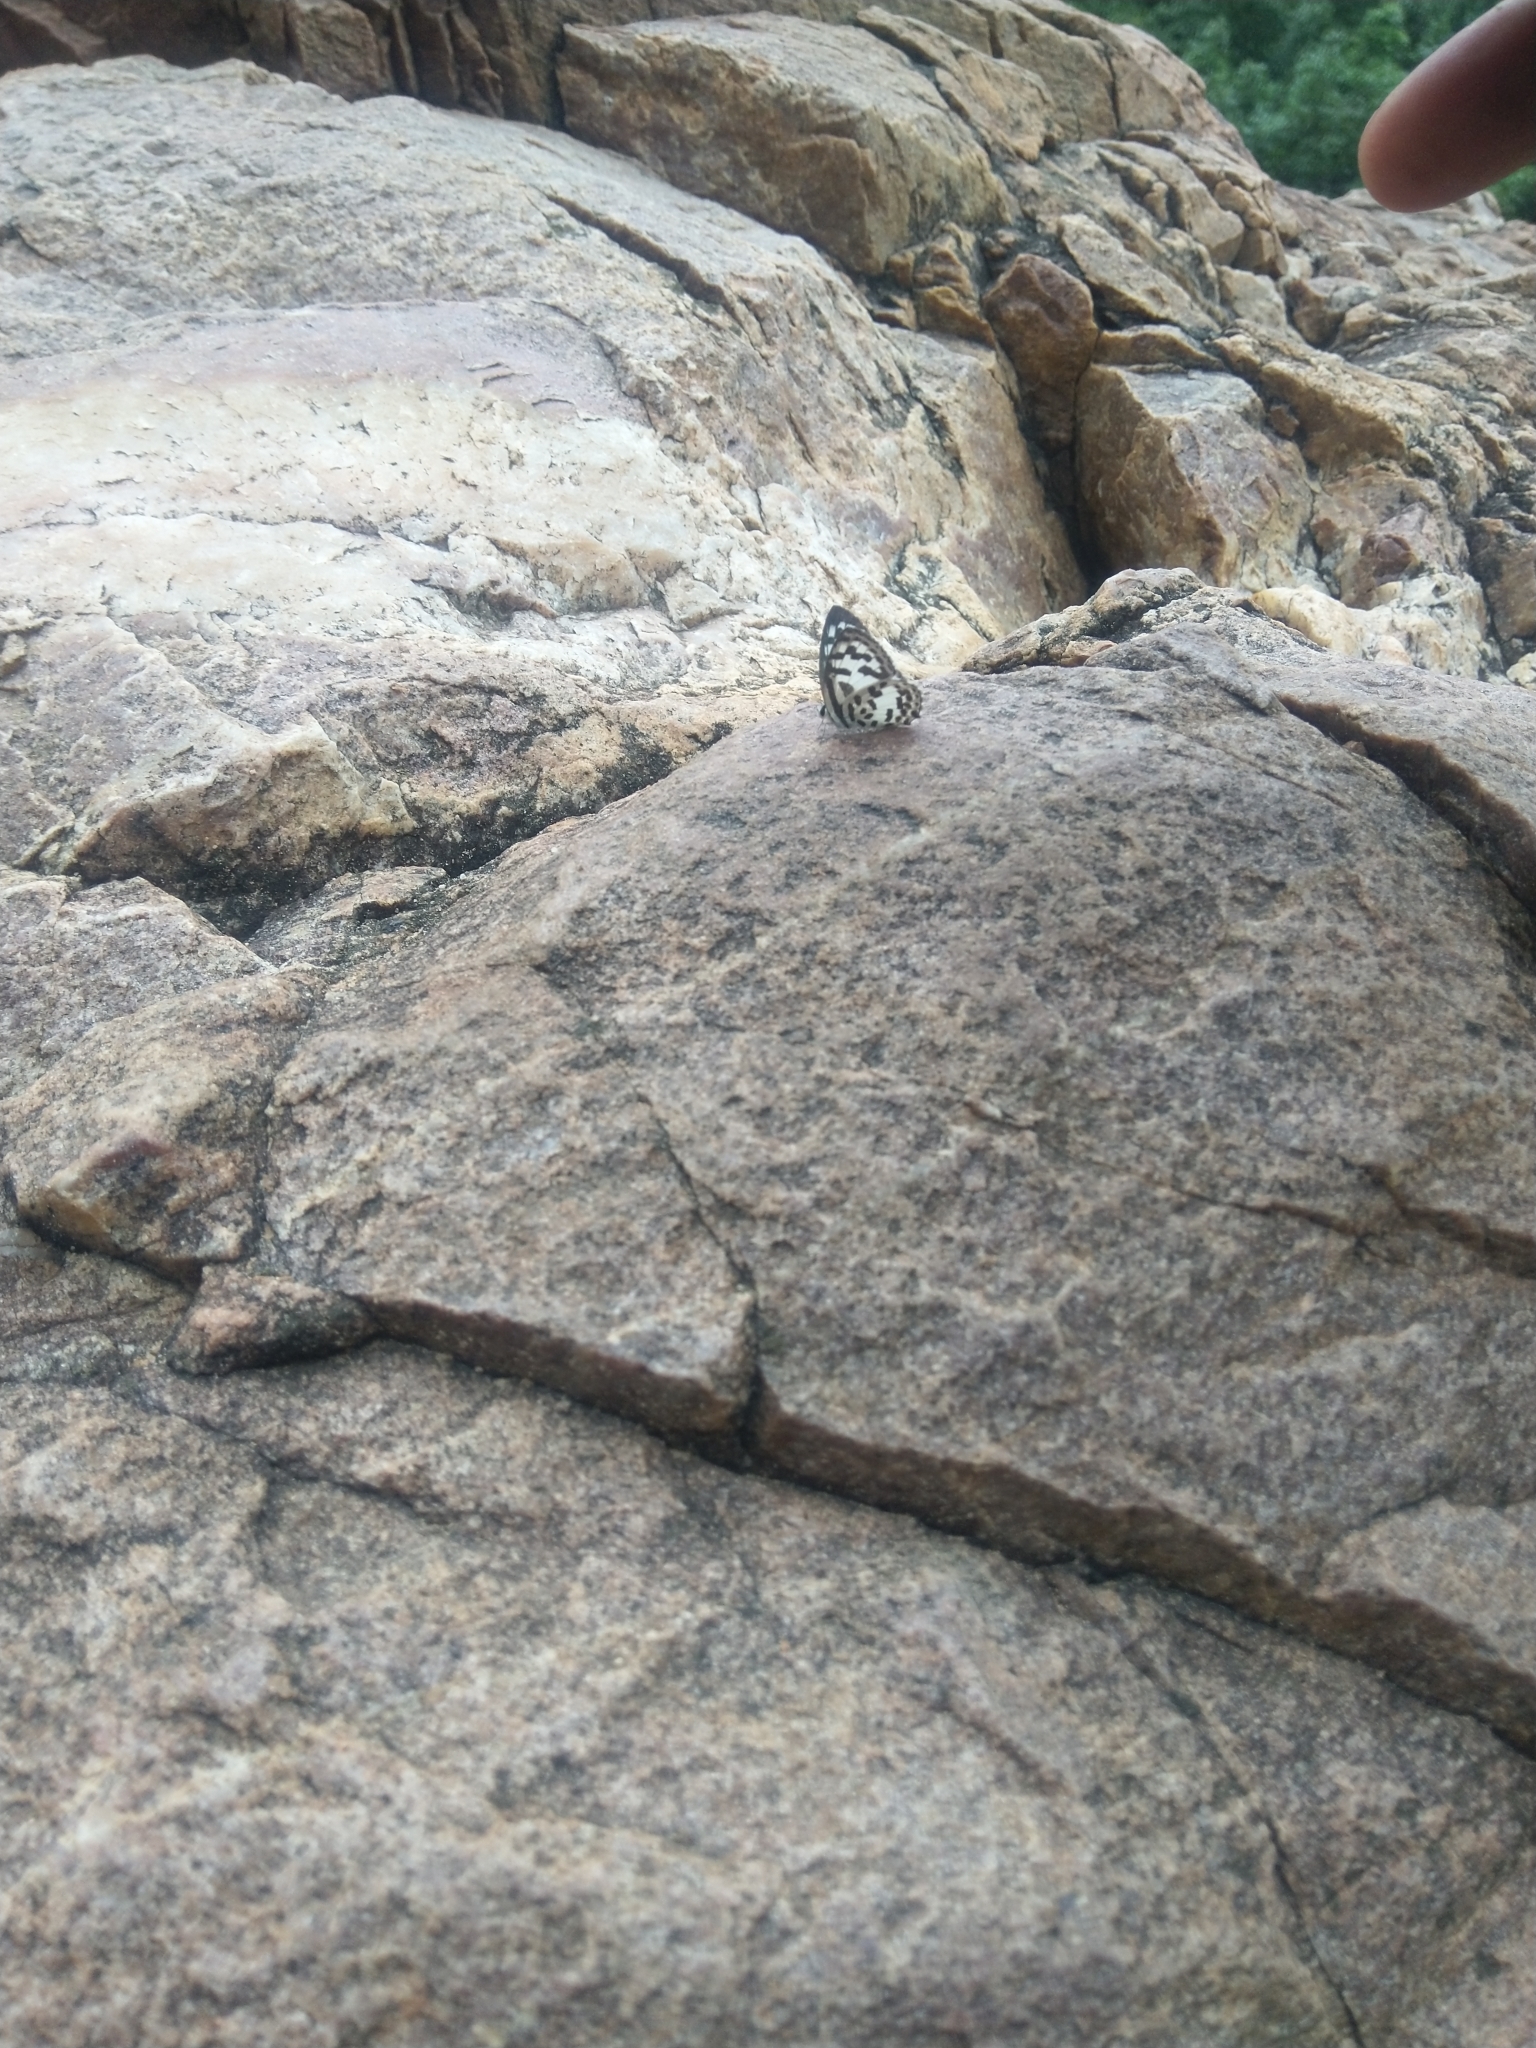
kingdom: Animalia
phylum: Arthropoda
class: Insecta
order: Lepidoptera
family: Lycaenidae
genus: Castalius
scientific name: Castalius rosimon
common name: Common pierrot
